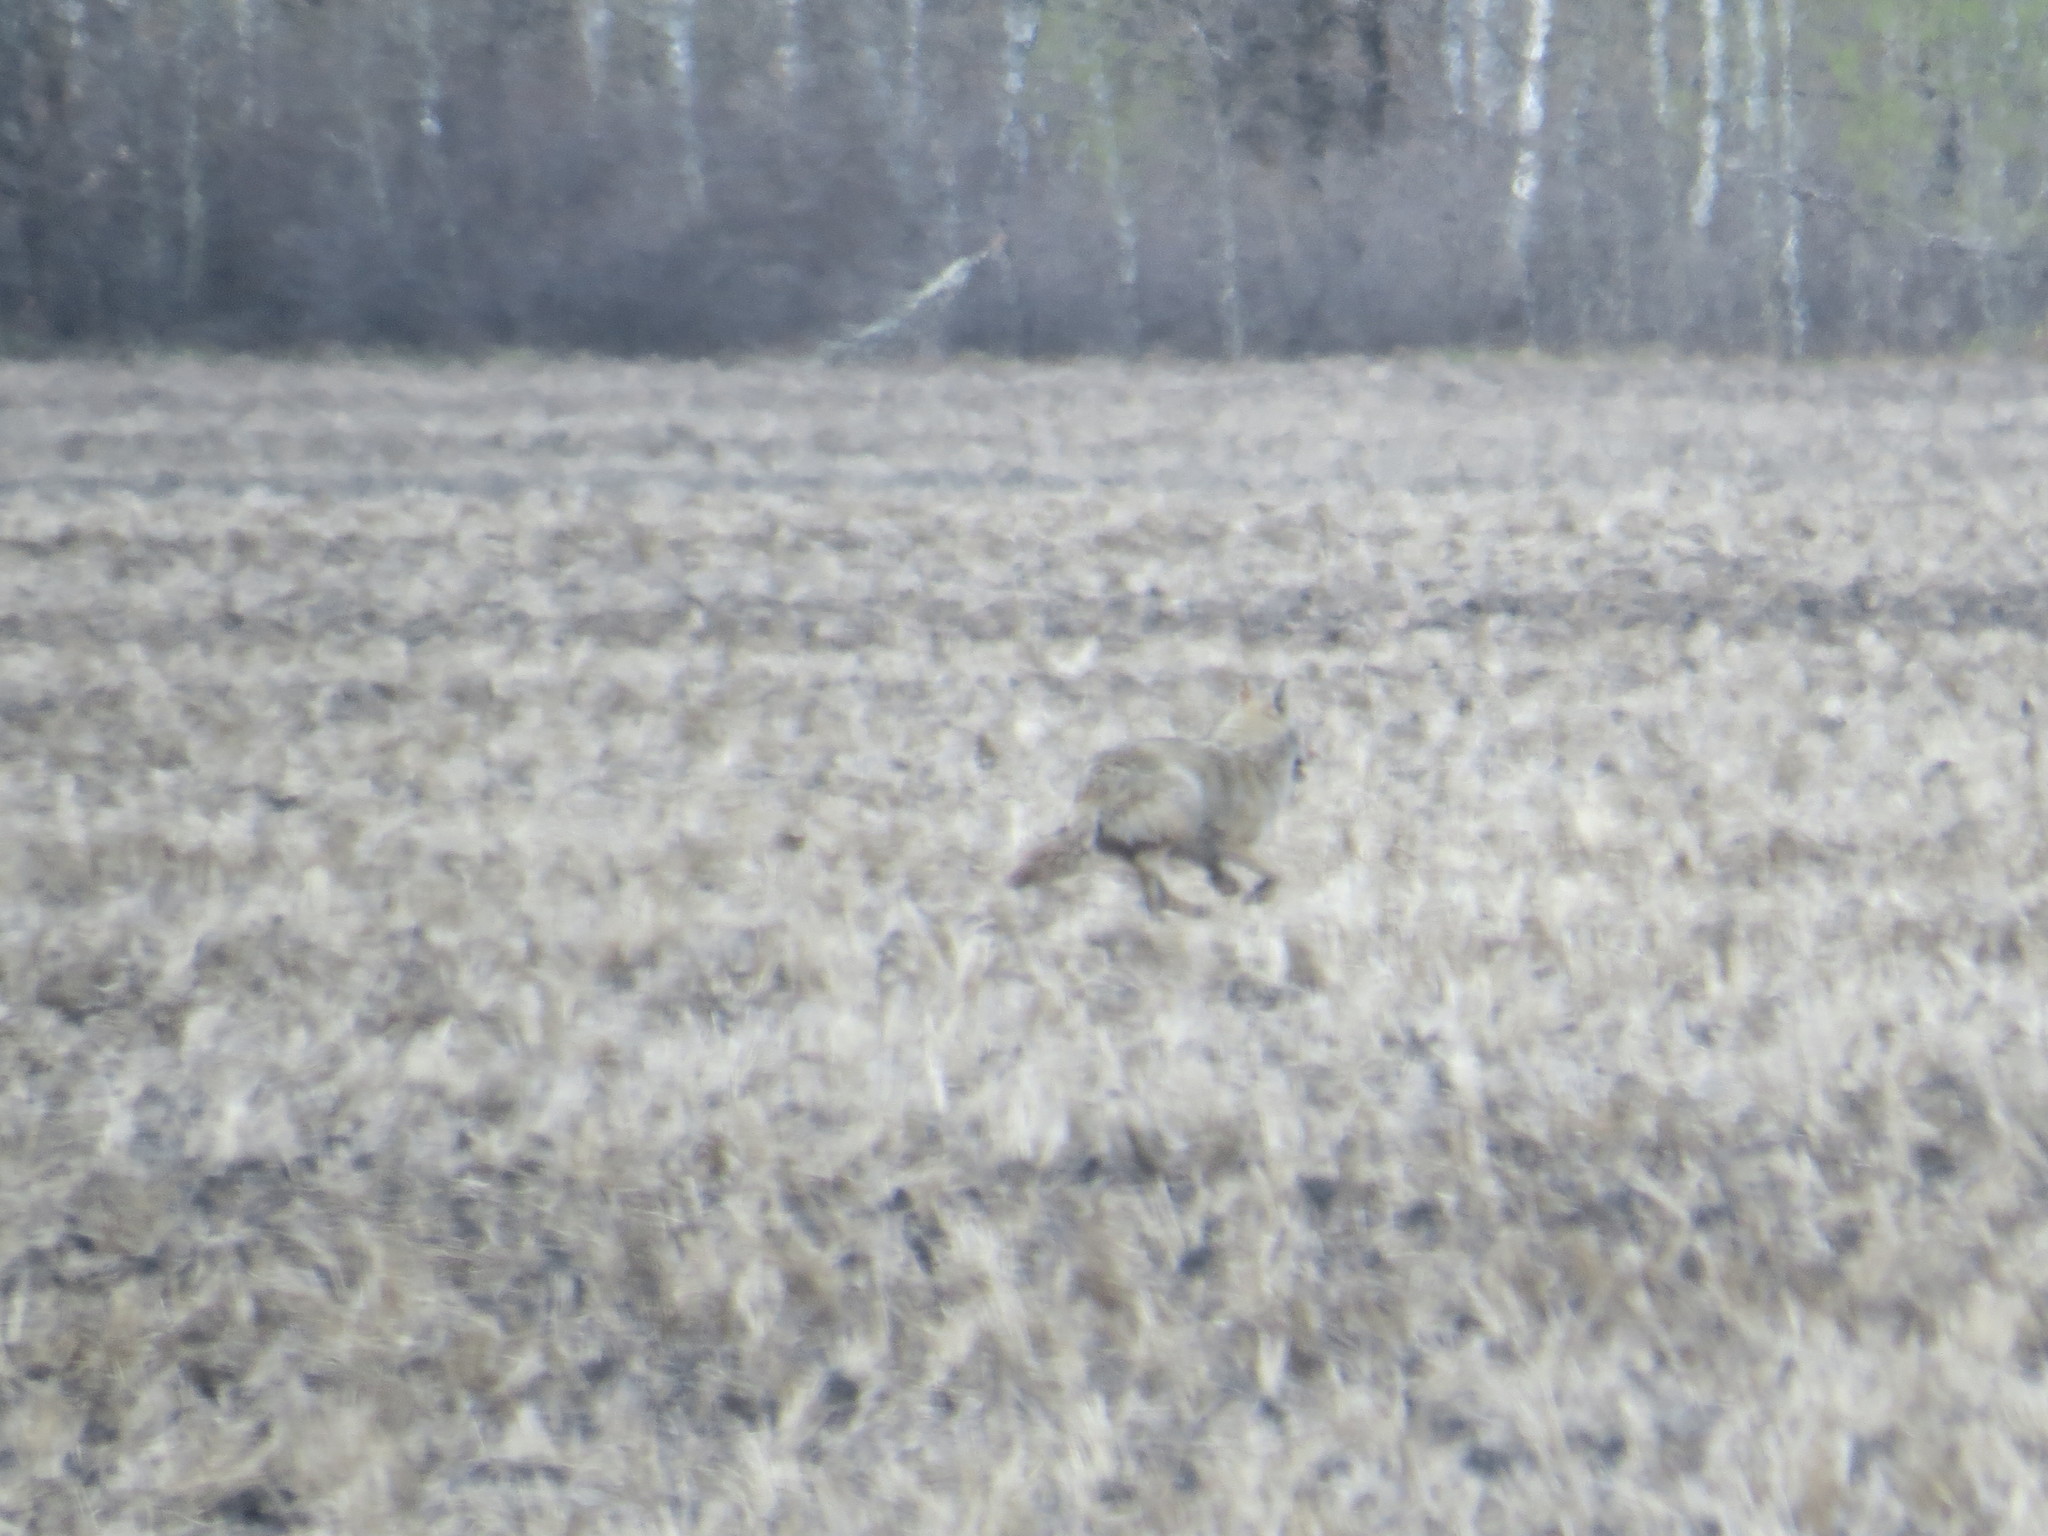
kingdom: Animalia
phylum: Chordata
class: Mammalia
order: Carnivora
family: Canidae
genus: Canis
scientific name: Canis latrans
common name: Coyote
